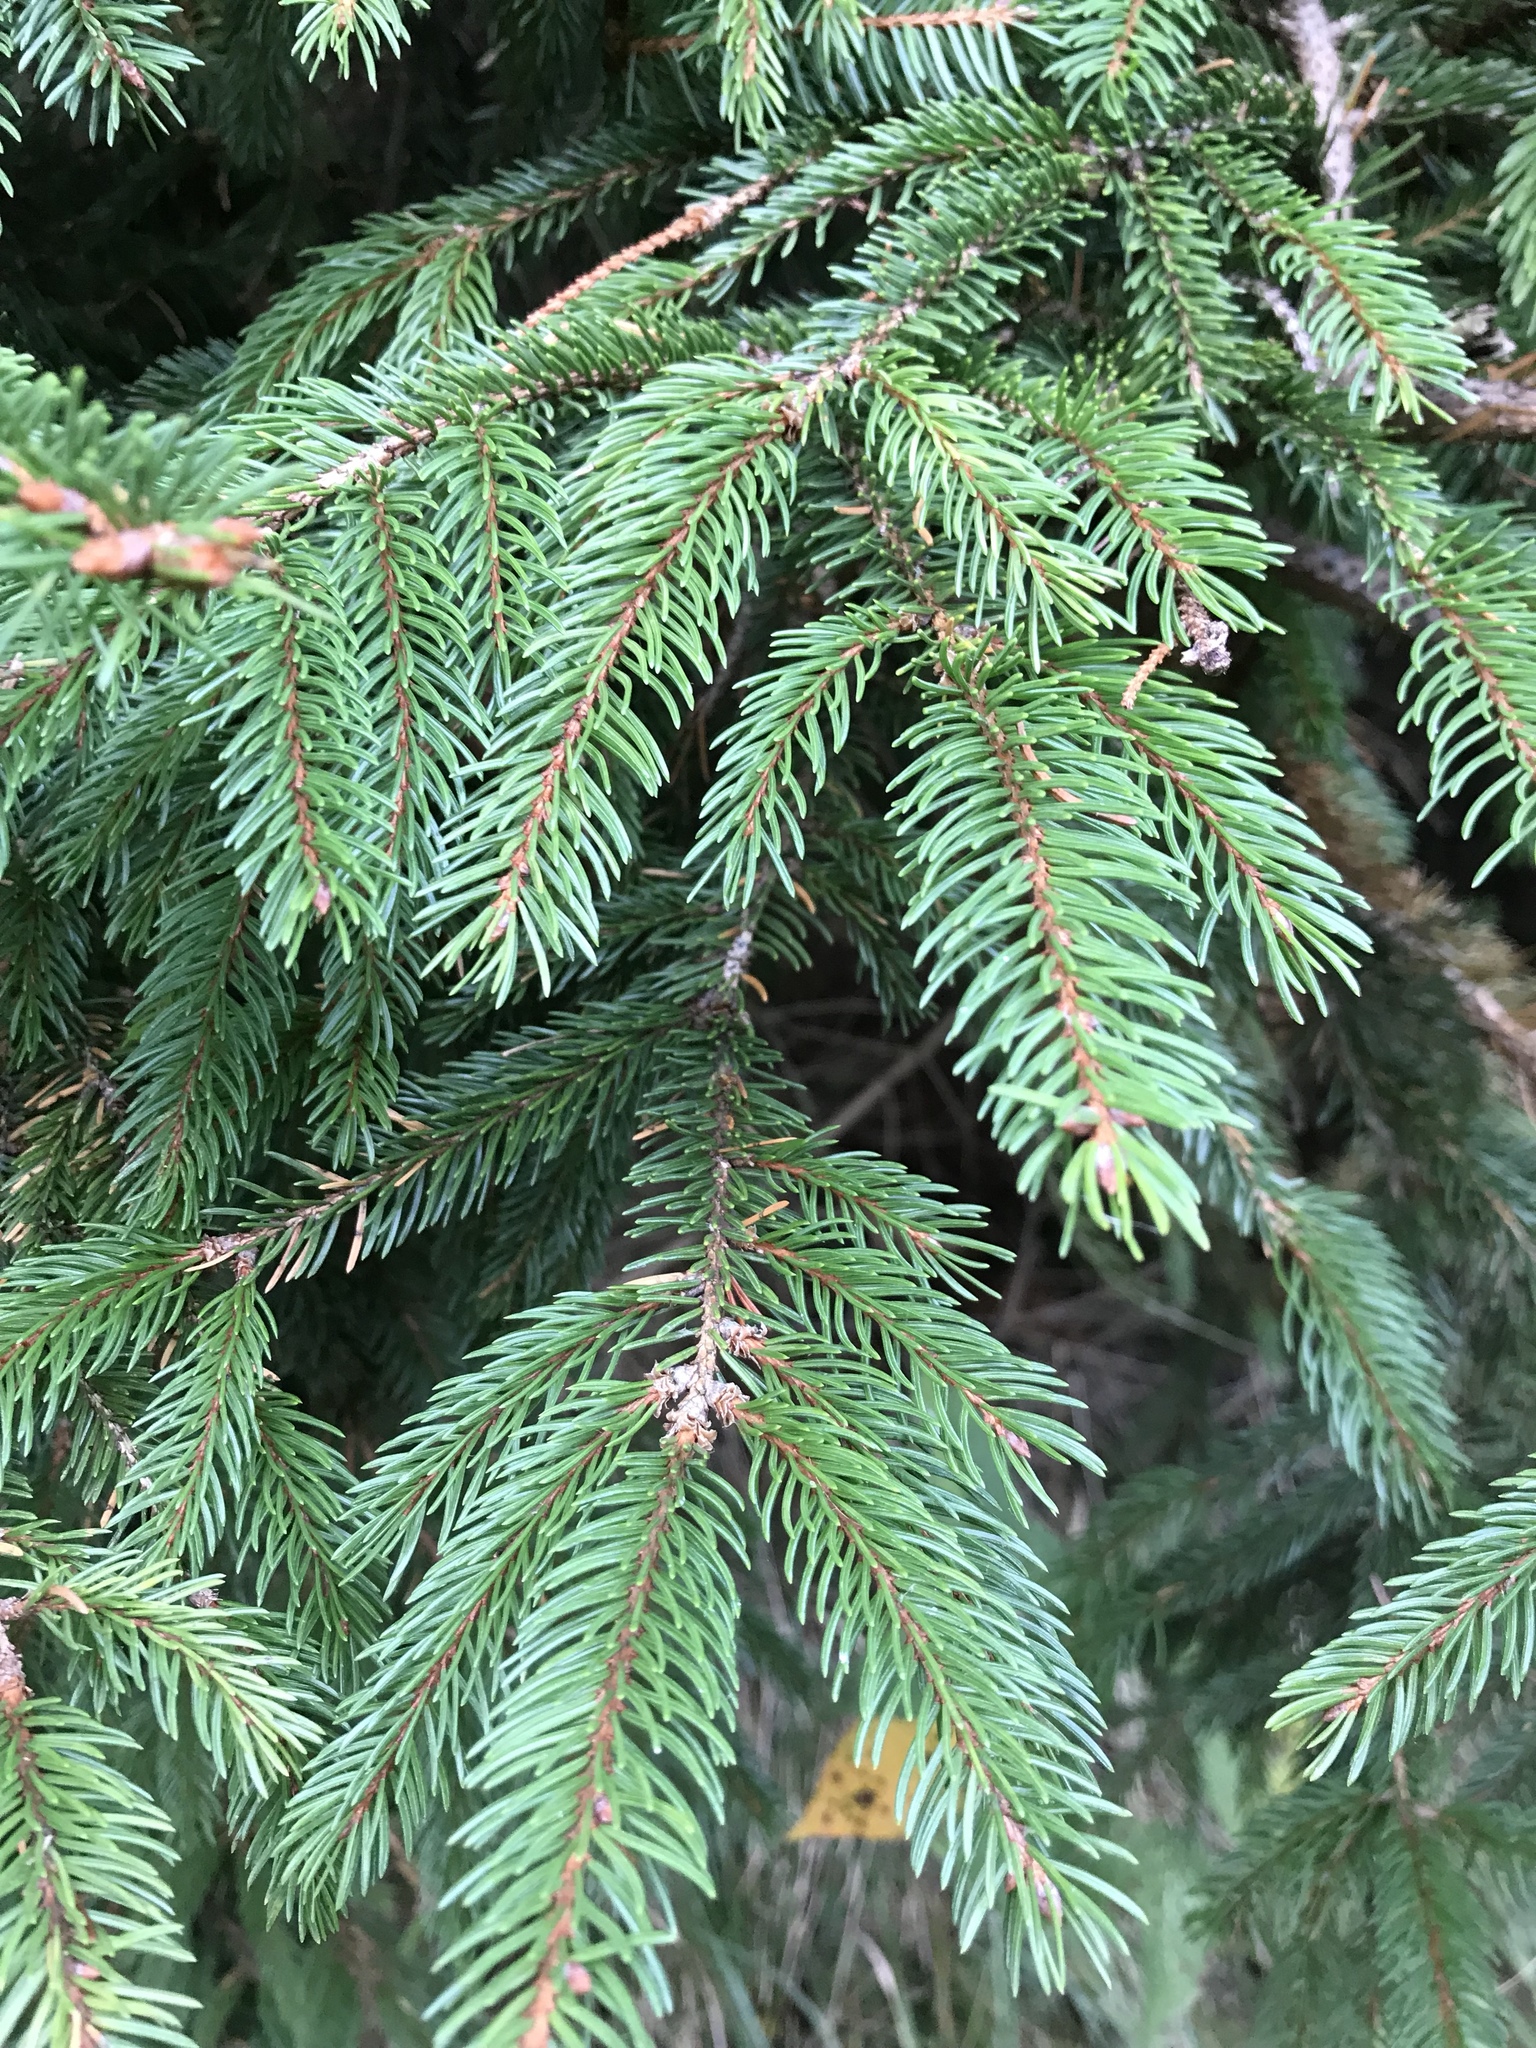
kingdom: Plantae
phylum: Tracheophyta
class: Pinopsida
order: Pinales
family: Pinaceae
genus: Picea
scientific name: Picea abies
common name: Norway spruce
